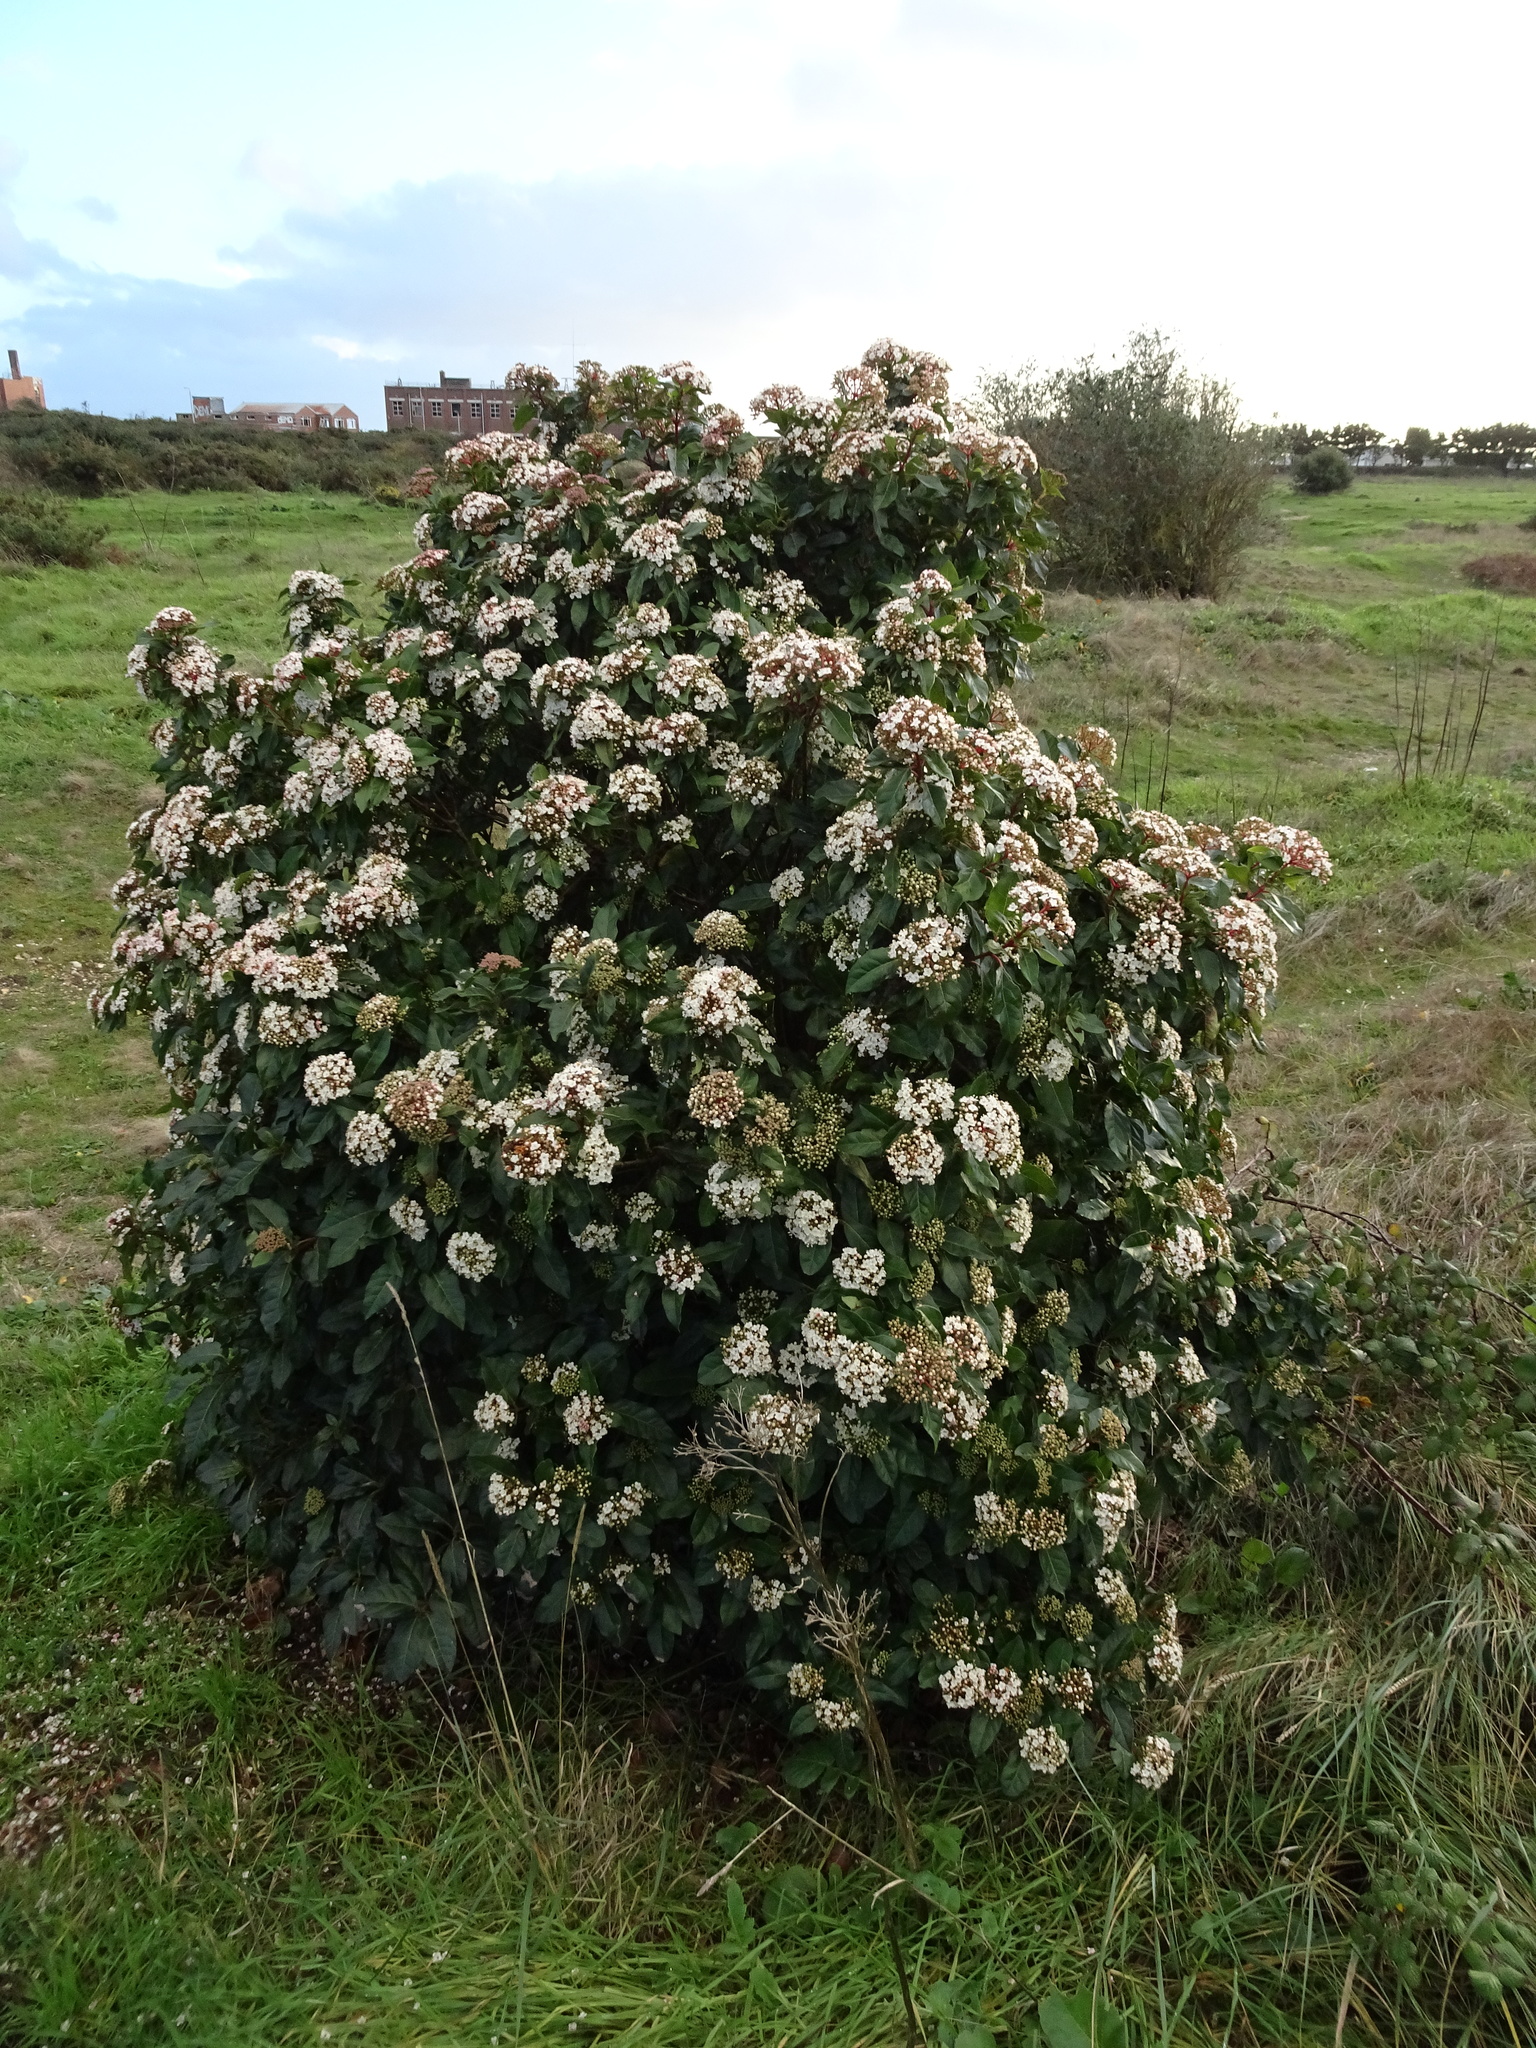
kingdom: Plantae
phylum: Tracheophyta
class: Magnoliopsida
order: Dipsacales
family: Viburnaceae
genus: Viburnum
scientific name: Viburnum tinus
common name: Laurustinus
